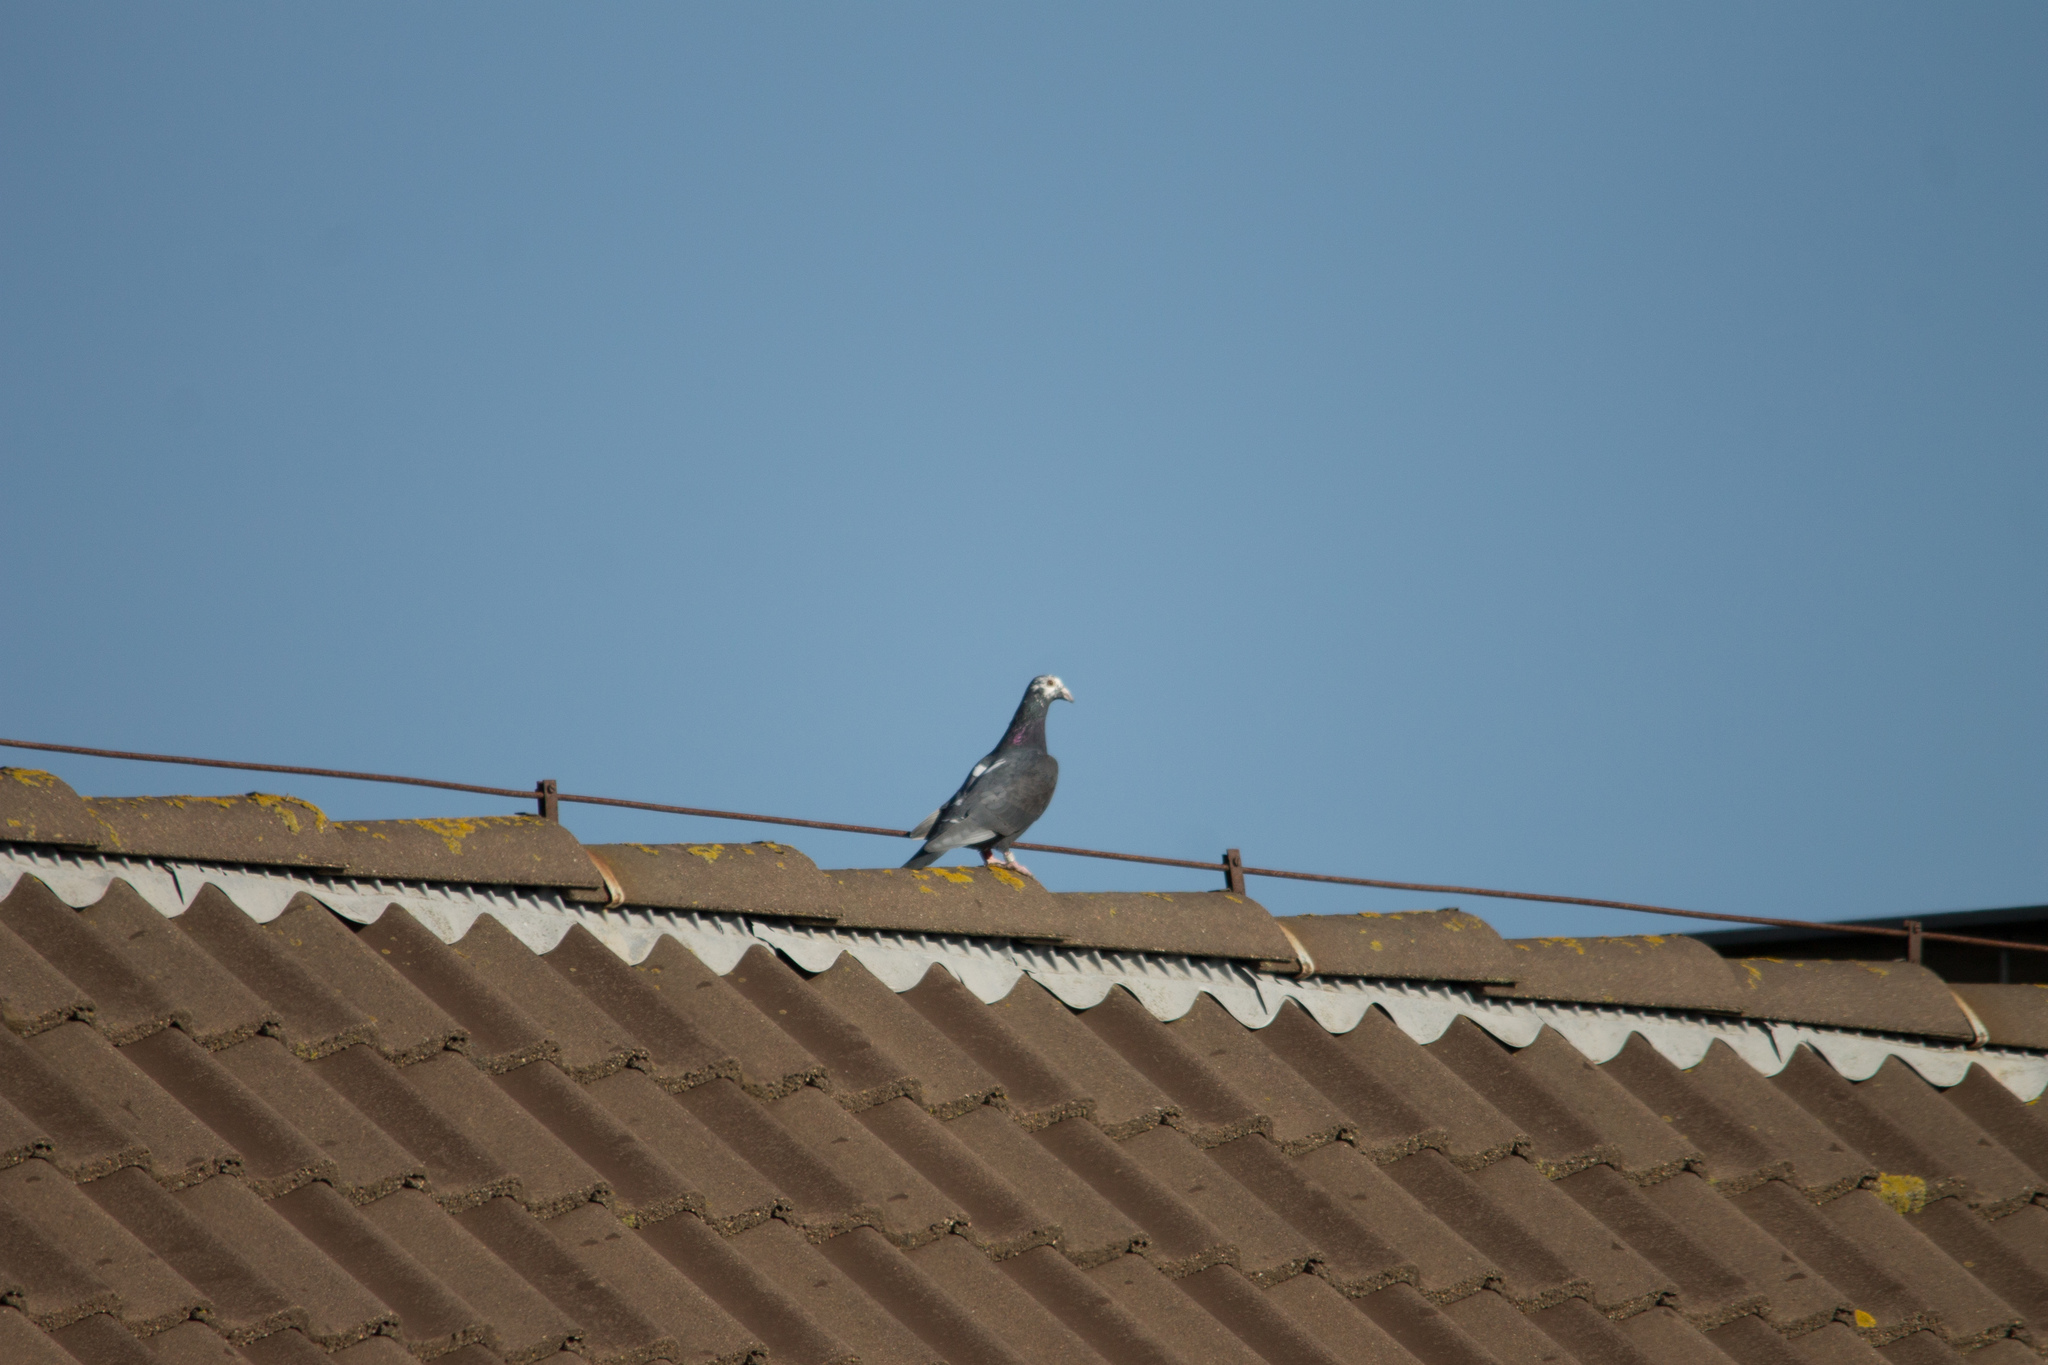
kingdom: Animalia
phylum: Chordata
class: Aves
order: Columbiformes
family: Columbidae
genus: Columba
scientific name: Columba livia
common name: Rock pigeon
